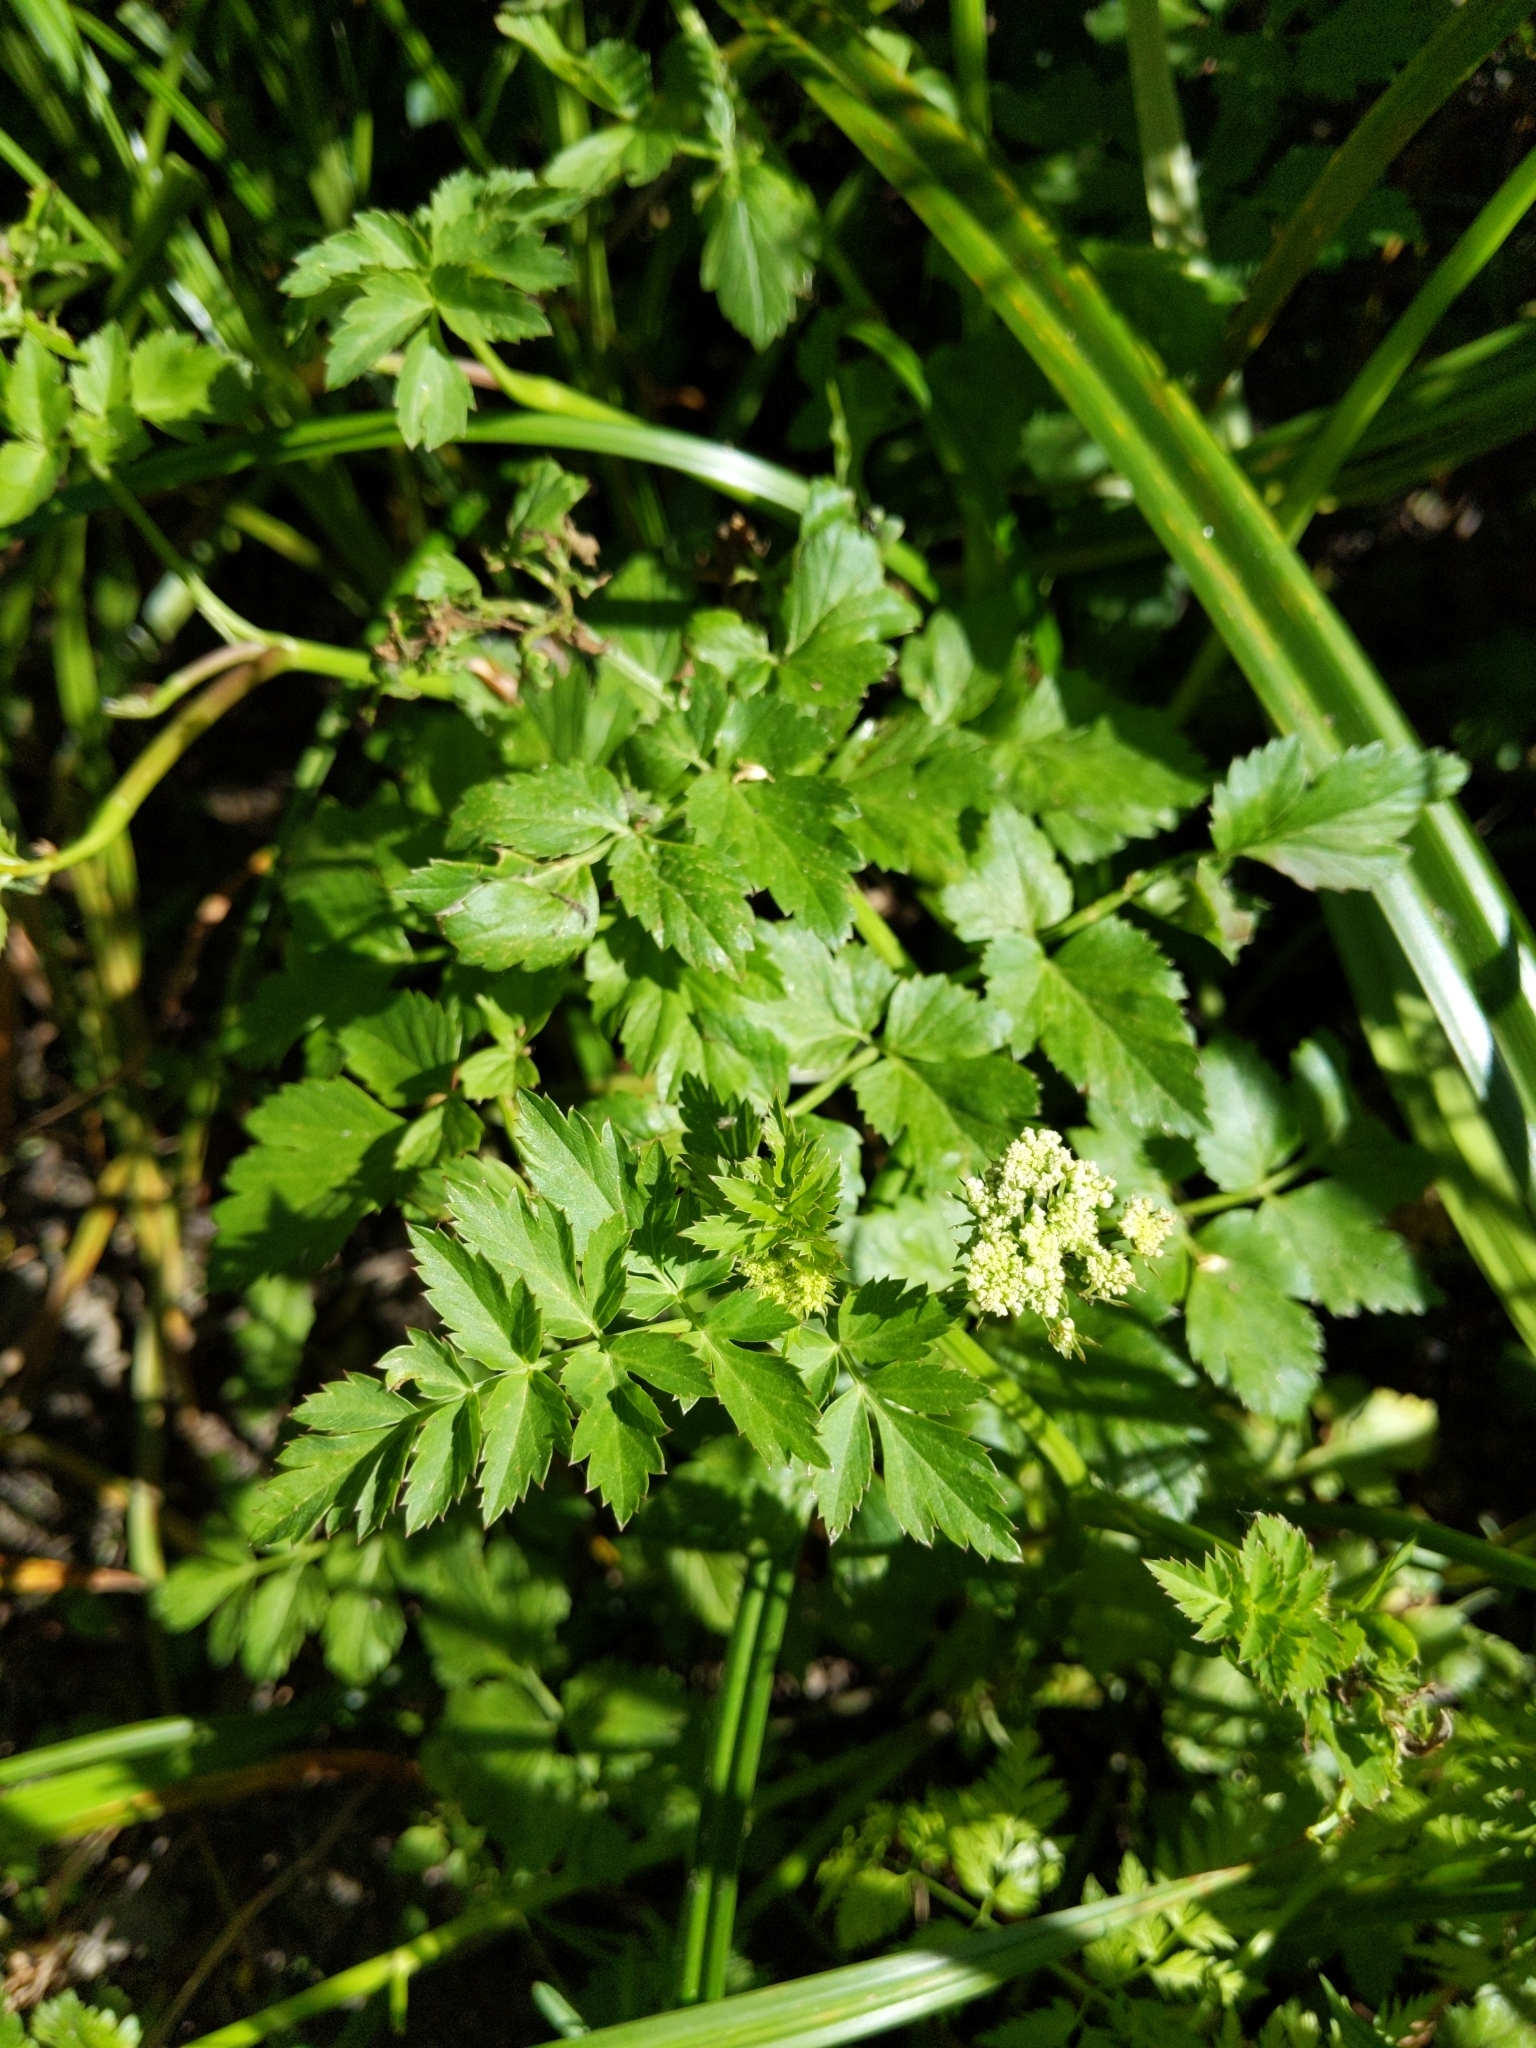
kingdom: Plantae
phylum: Tracheophyta
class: Magnoliopsida
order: Apiales
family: Apiaceae
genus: Oenanthe
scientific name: Oenanthe sarmentosa
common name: American water-parsley
